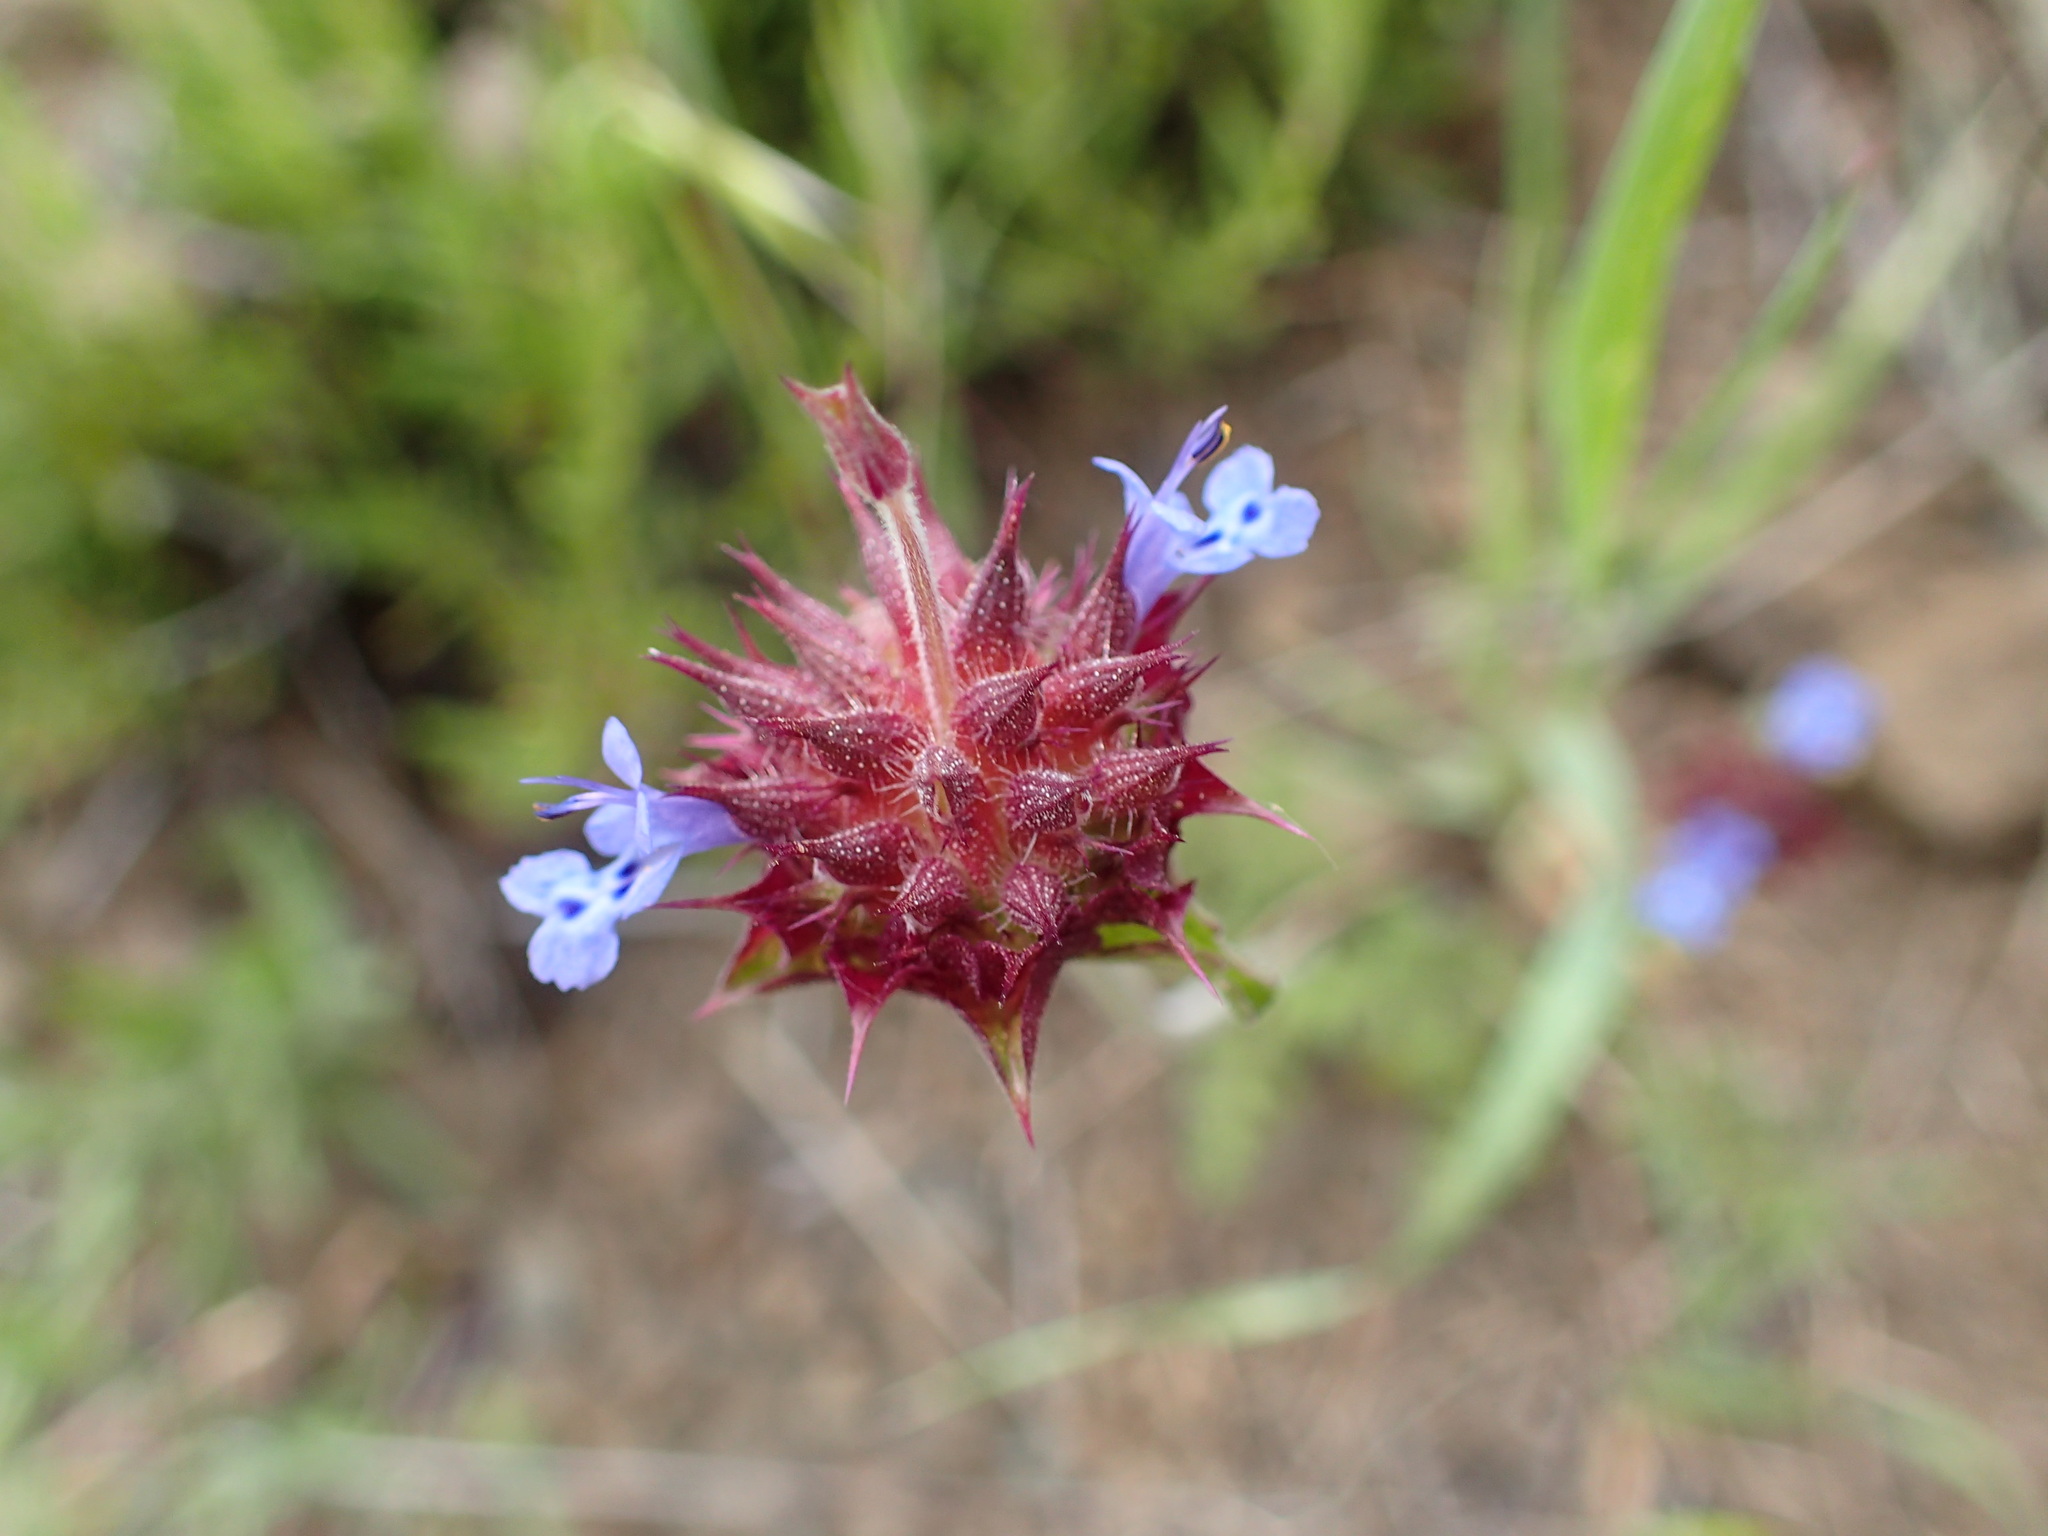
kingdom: Plantae
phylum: Tracheophyta
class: Magnoliopsida
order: Lamiales
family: Lamiaceae
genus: Salvia
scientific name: Salvia columbariae
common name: Chia
